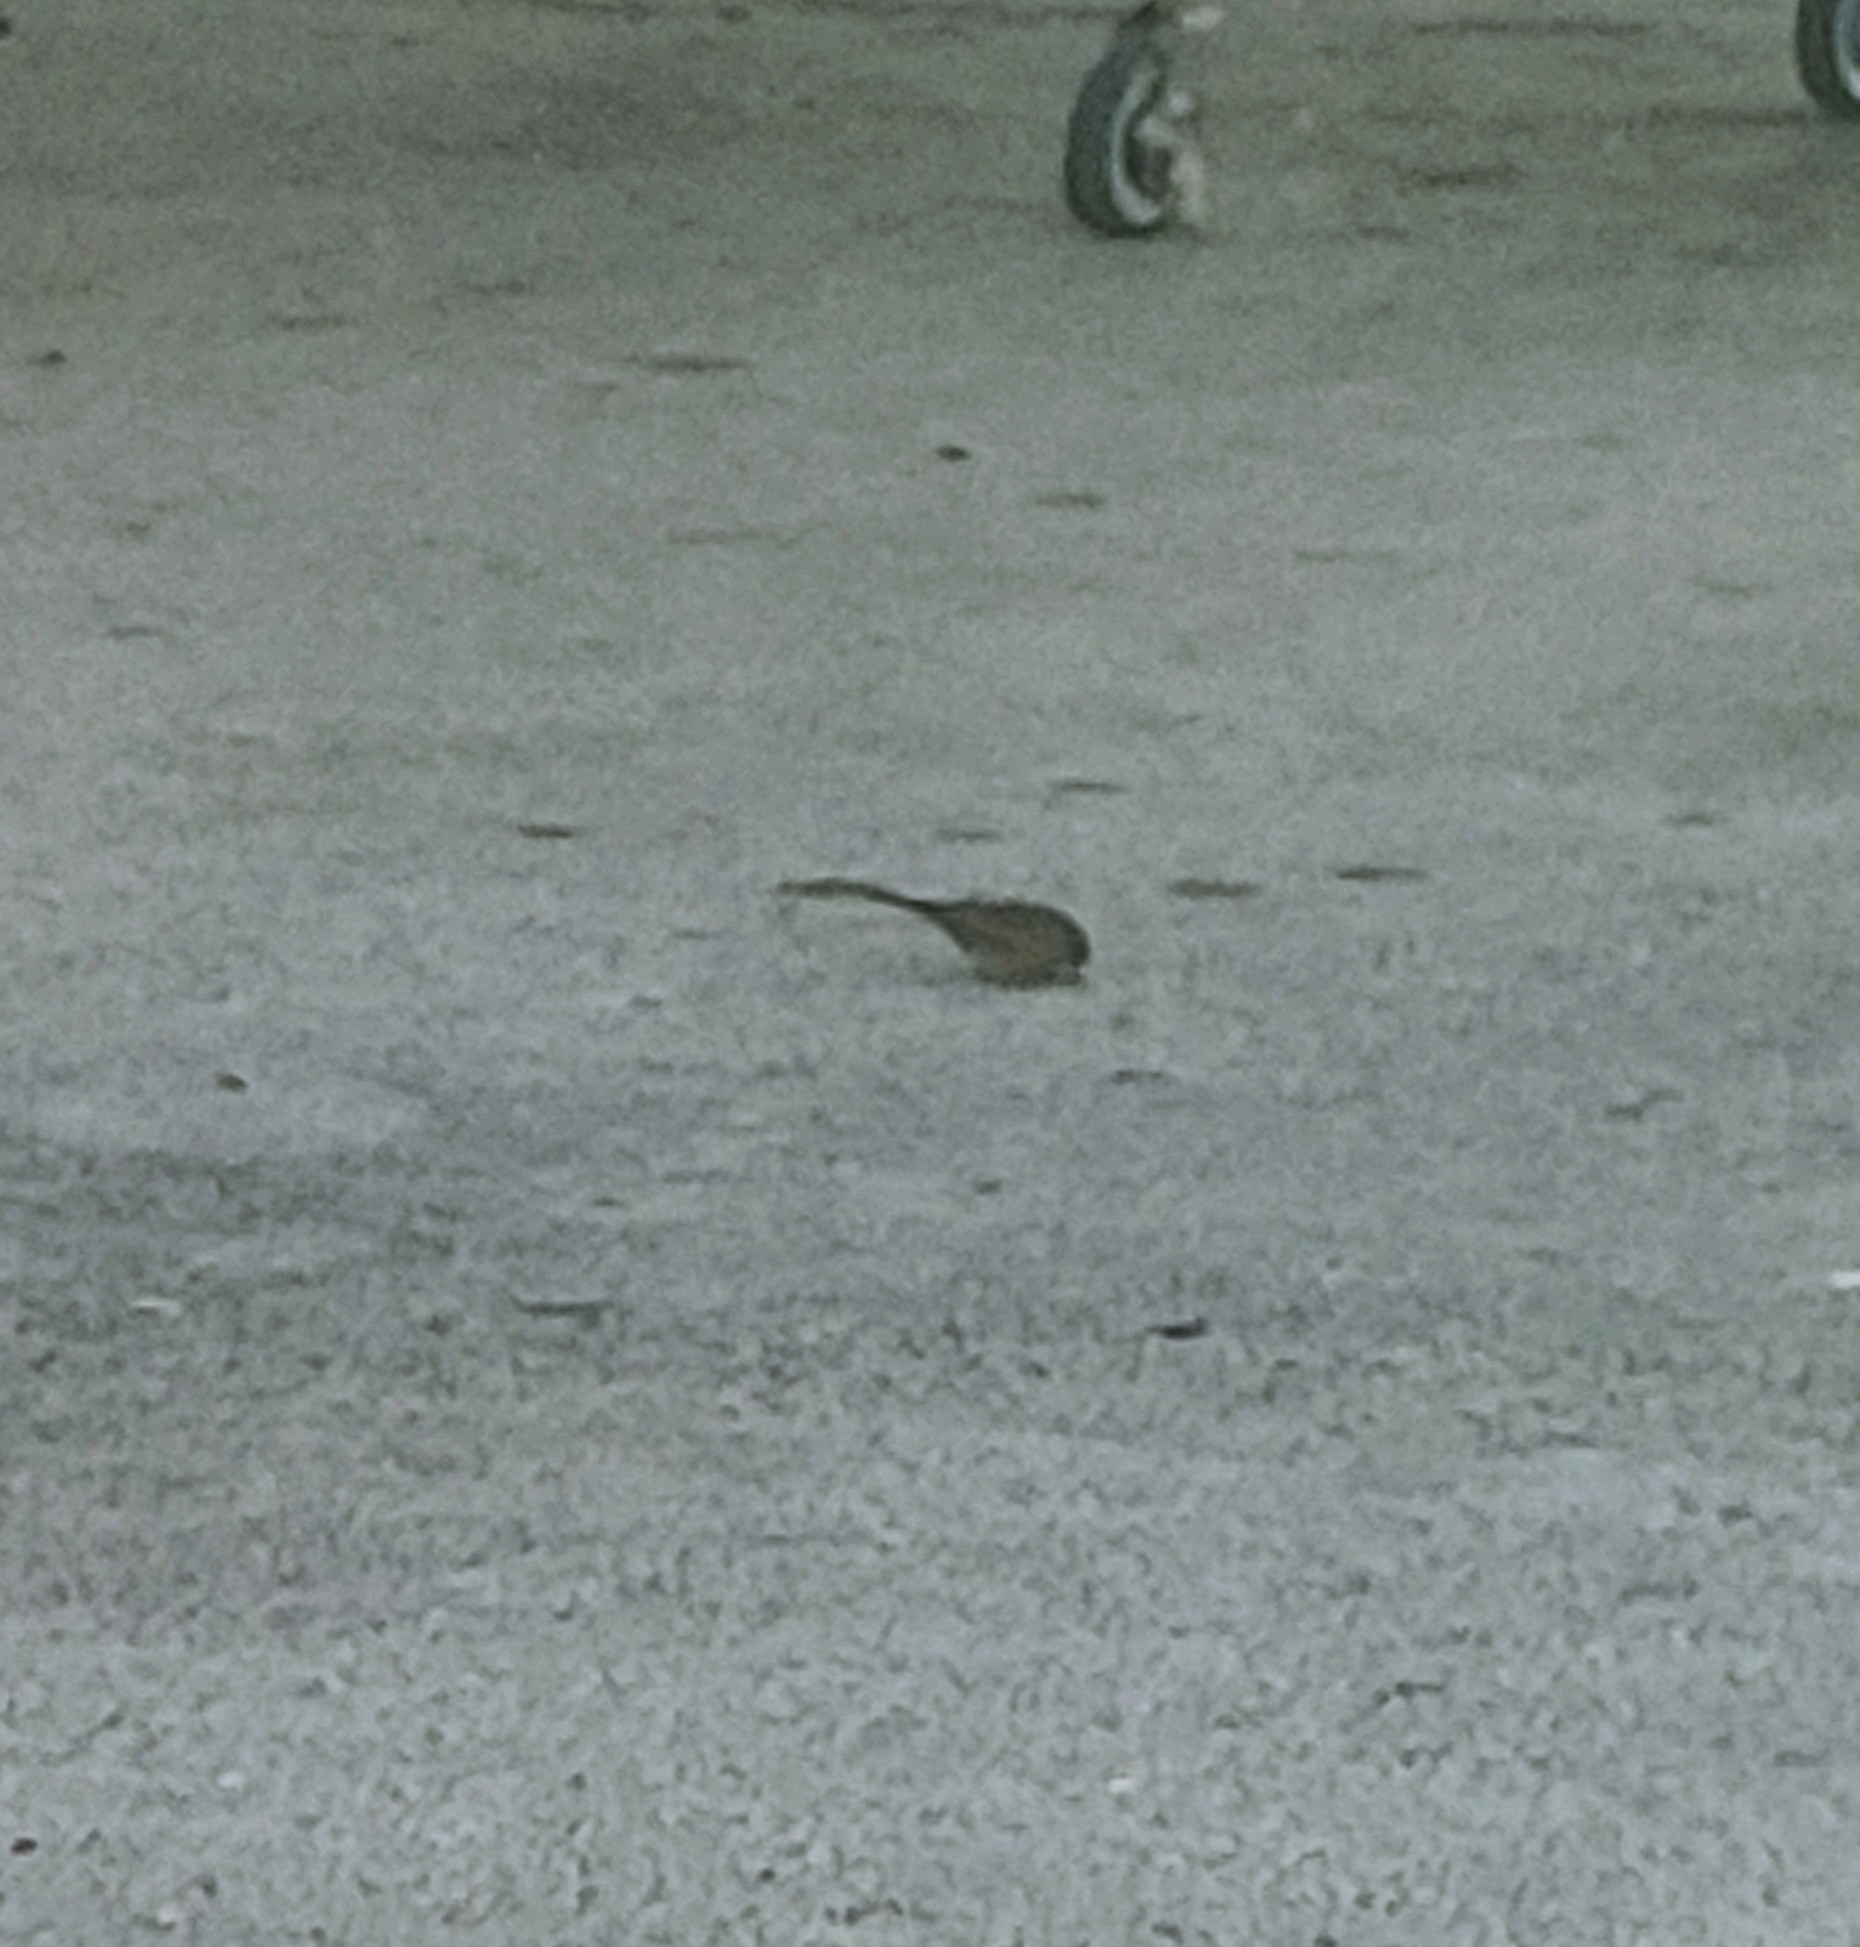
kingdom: Animalia
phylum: Chordata
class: Aves
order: Passeriformes
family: Passeridae
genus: Passer
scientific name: Passer domesticus
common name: House sparrow
